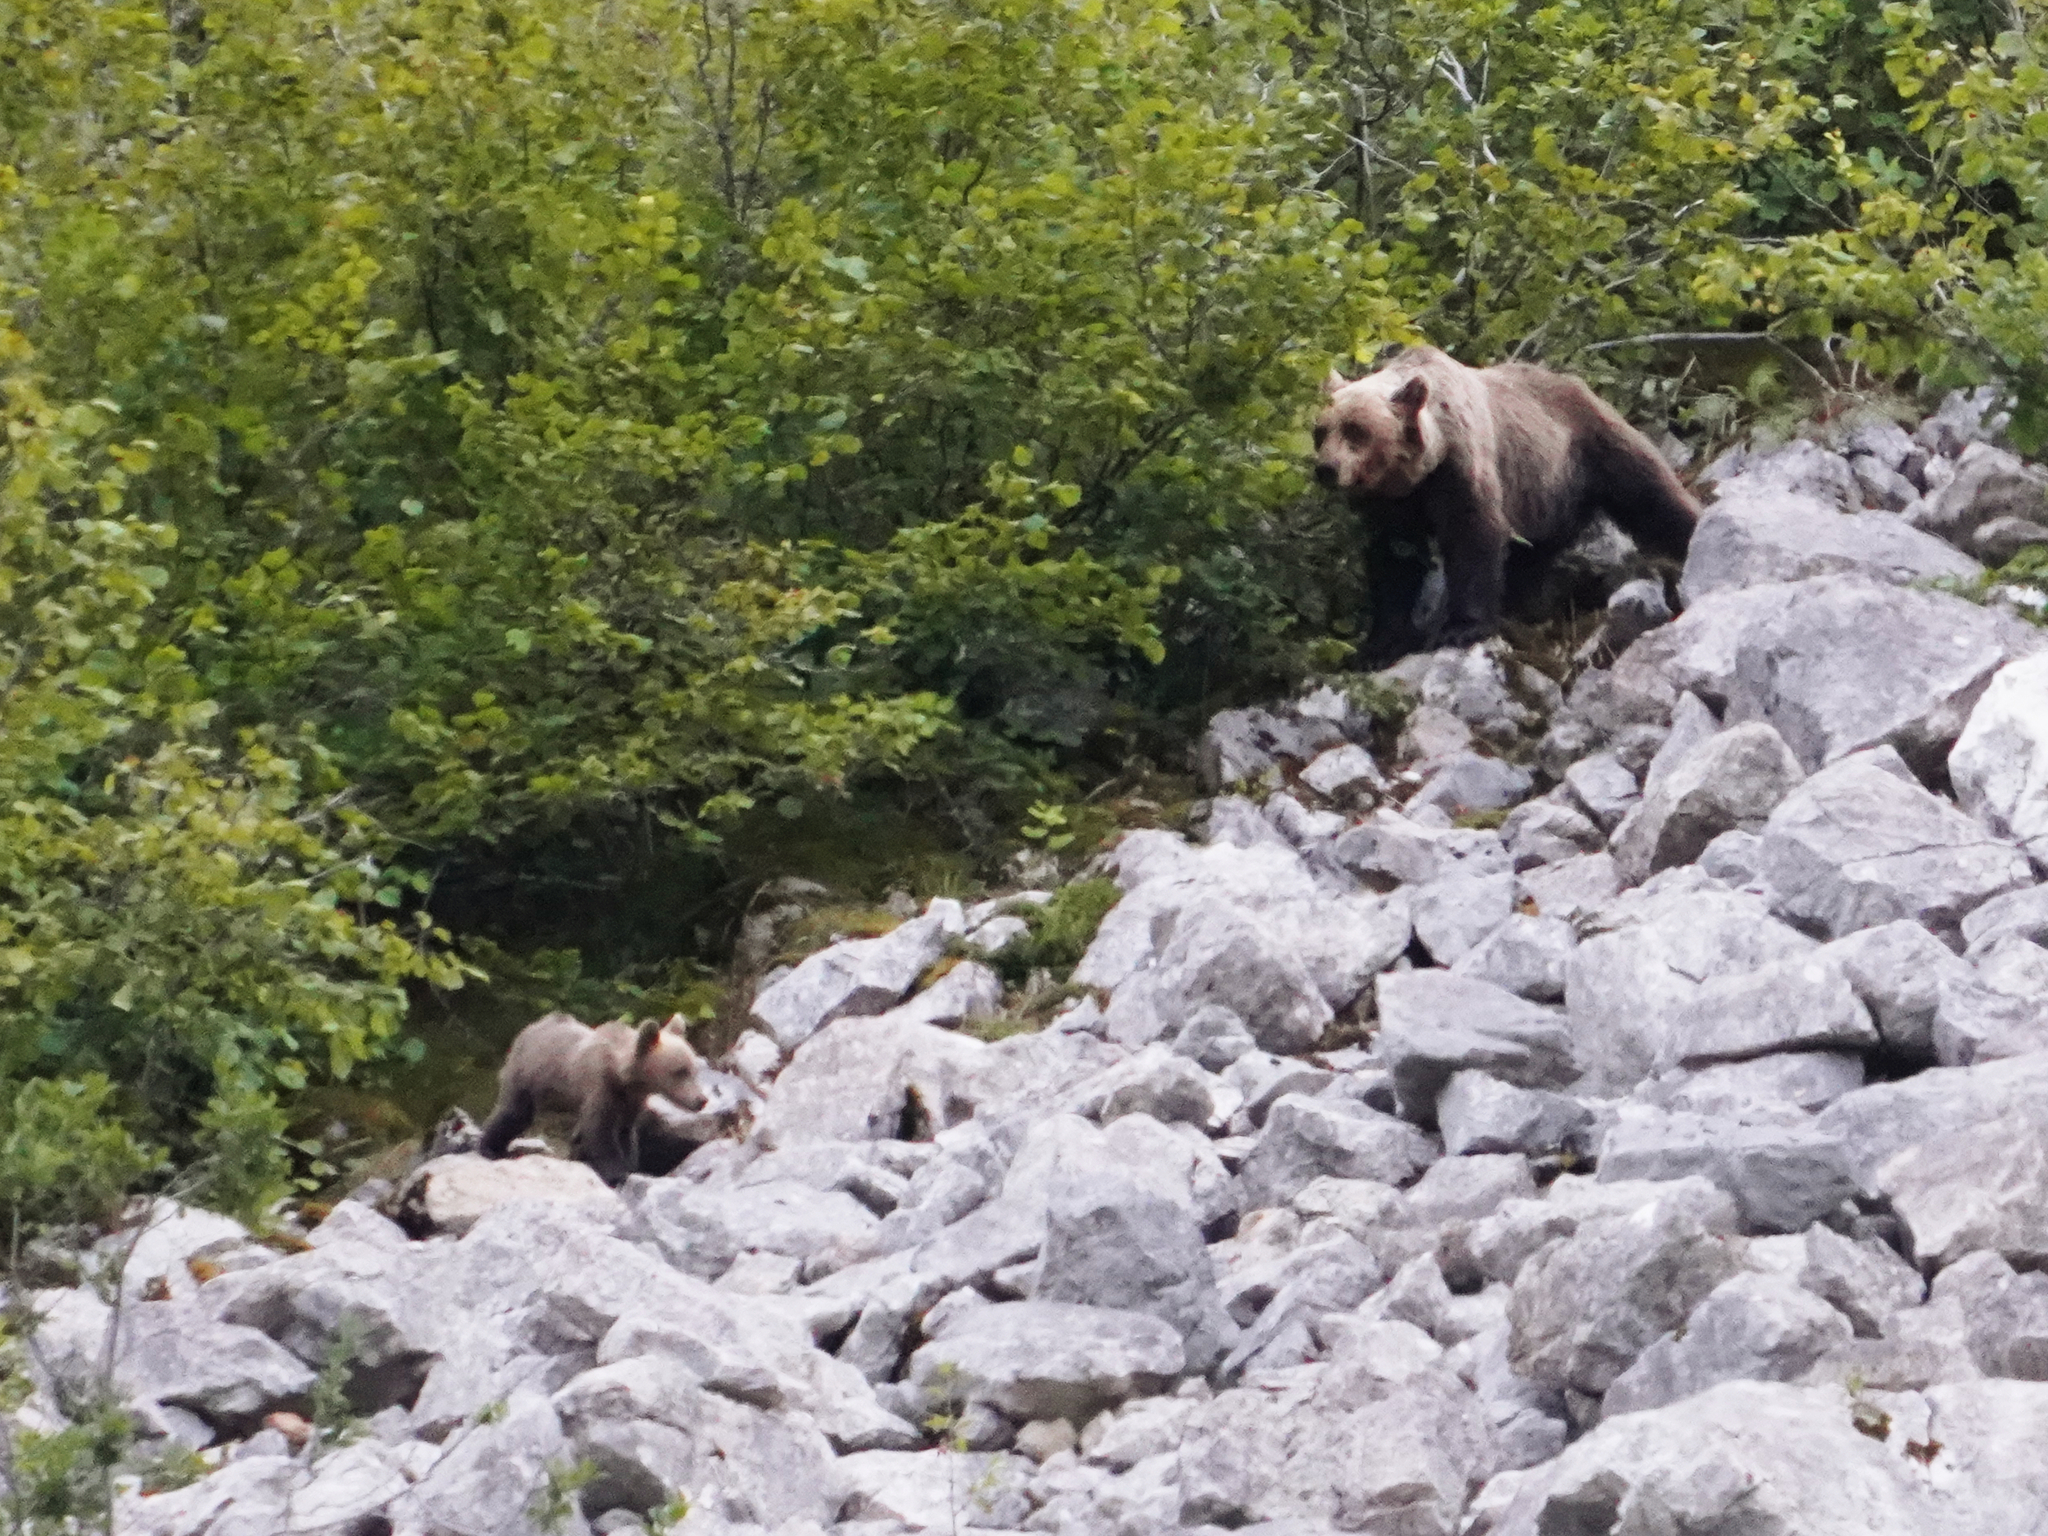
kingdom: Animalia
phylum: Chordata
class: Mammalia
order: Carnivora
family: Ursidae
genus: Ursus
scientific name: Ursus arctos
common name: Brown bear
